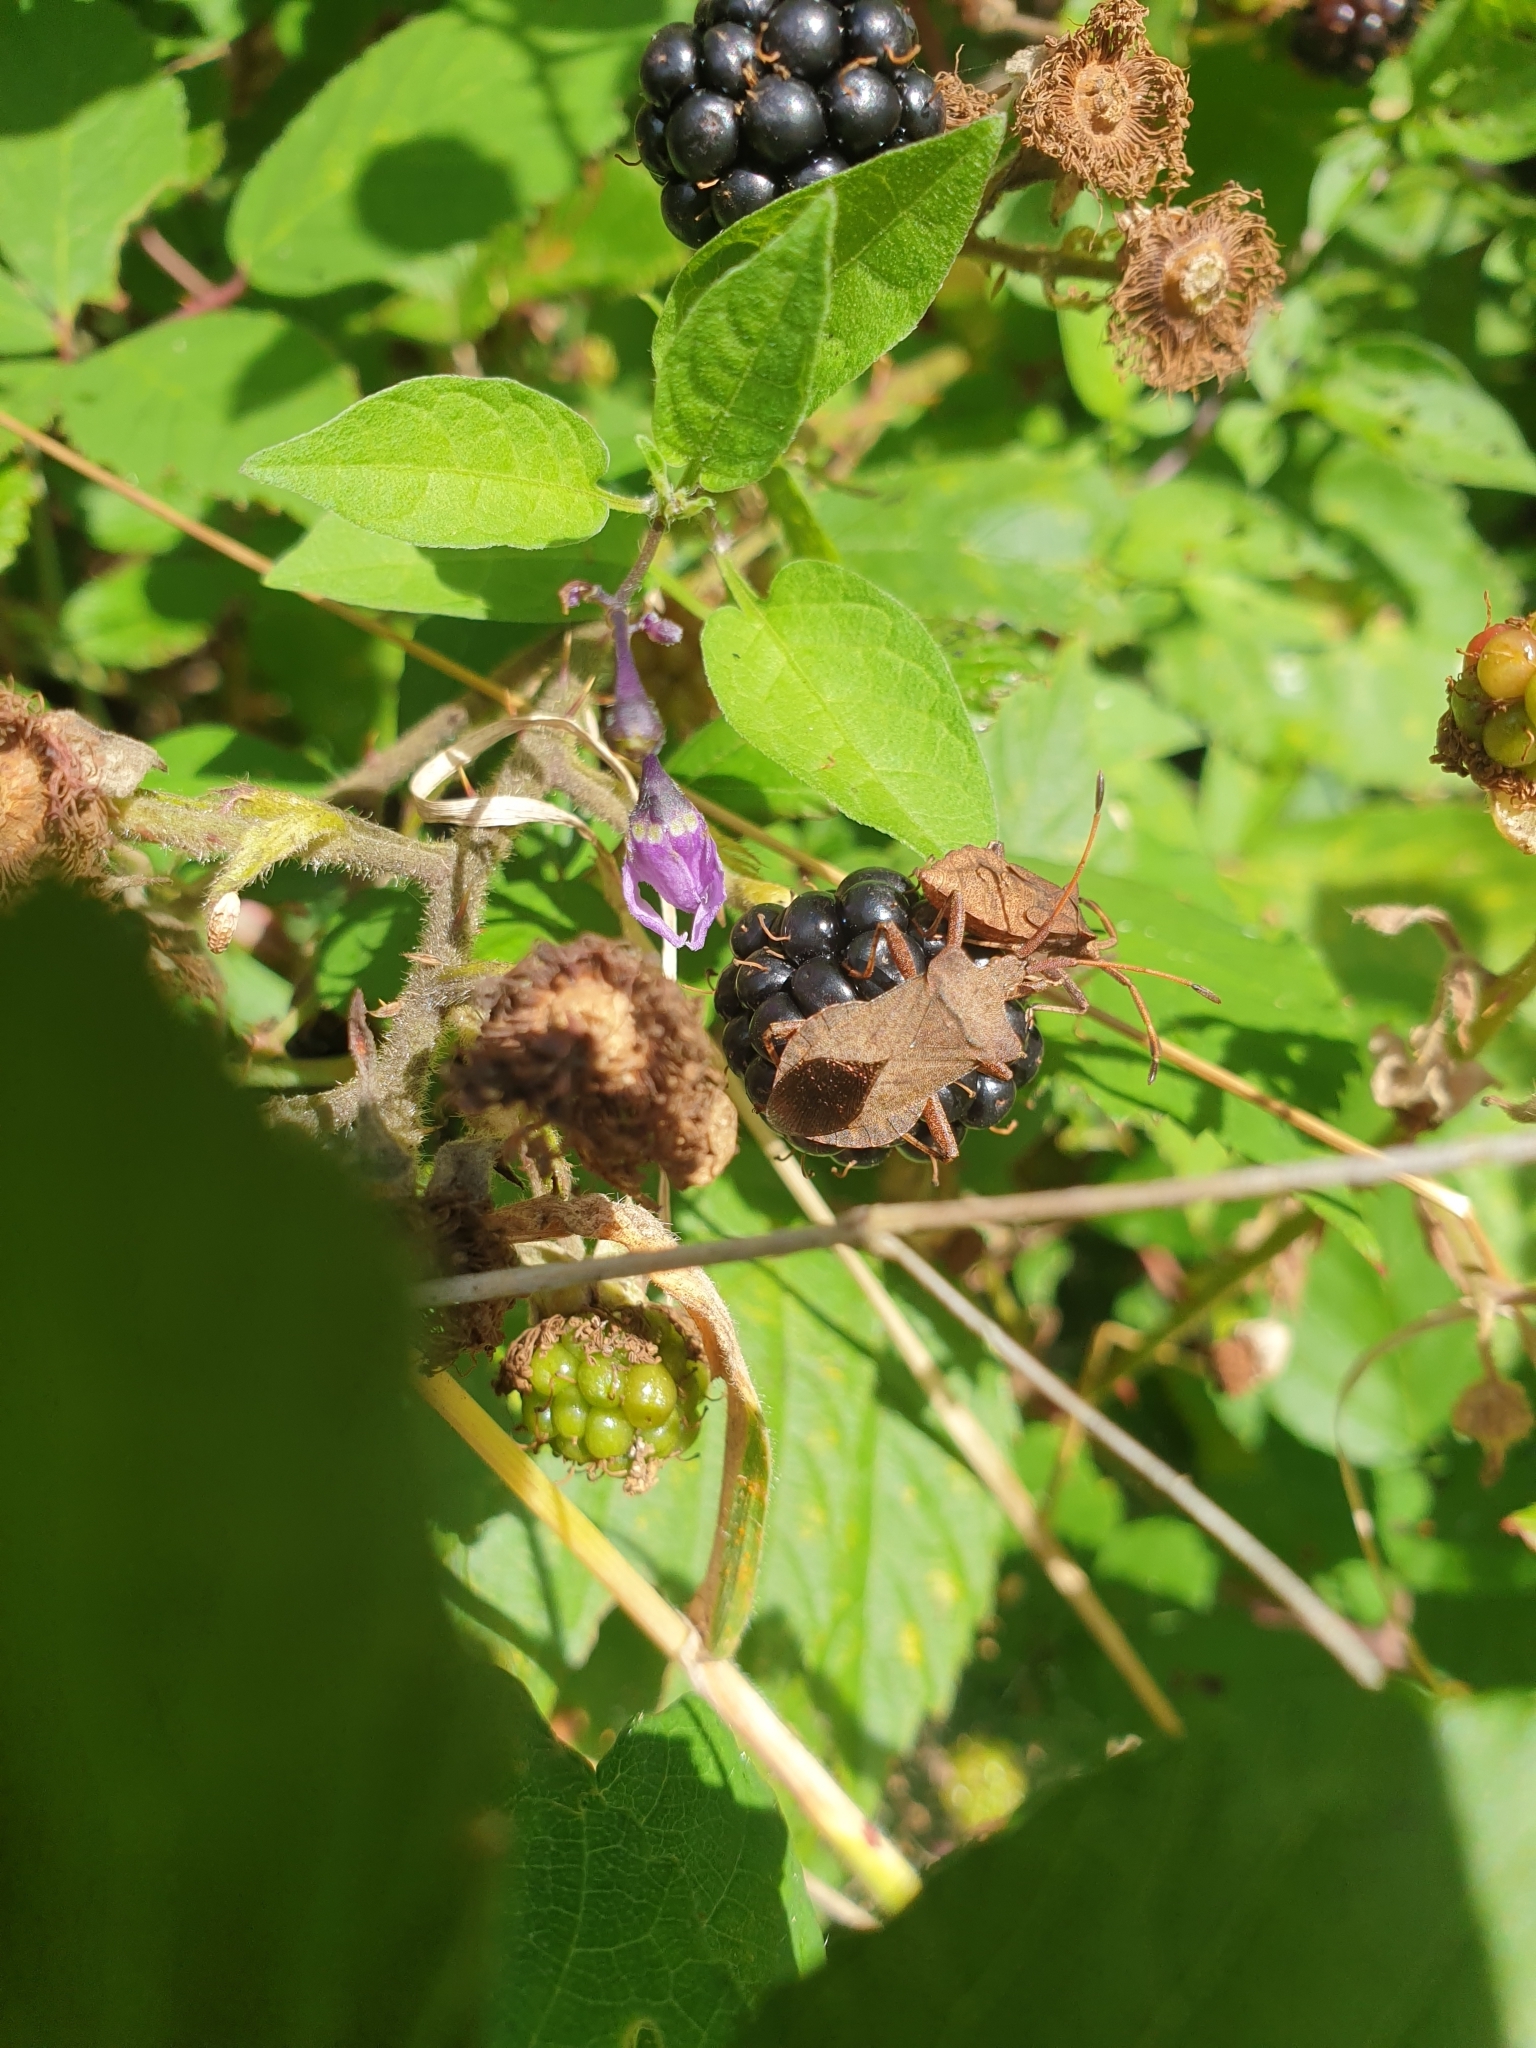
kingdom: Animalia
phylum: Arthropoda
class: Insecta
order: Hemiptera
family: Coreidae
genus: Coreus
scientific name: Coreus marginatus
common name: Dock bug
